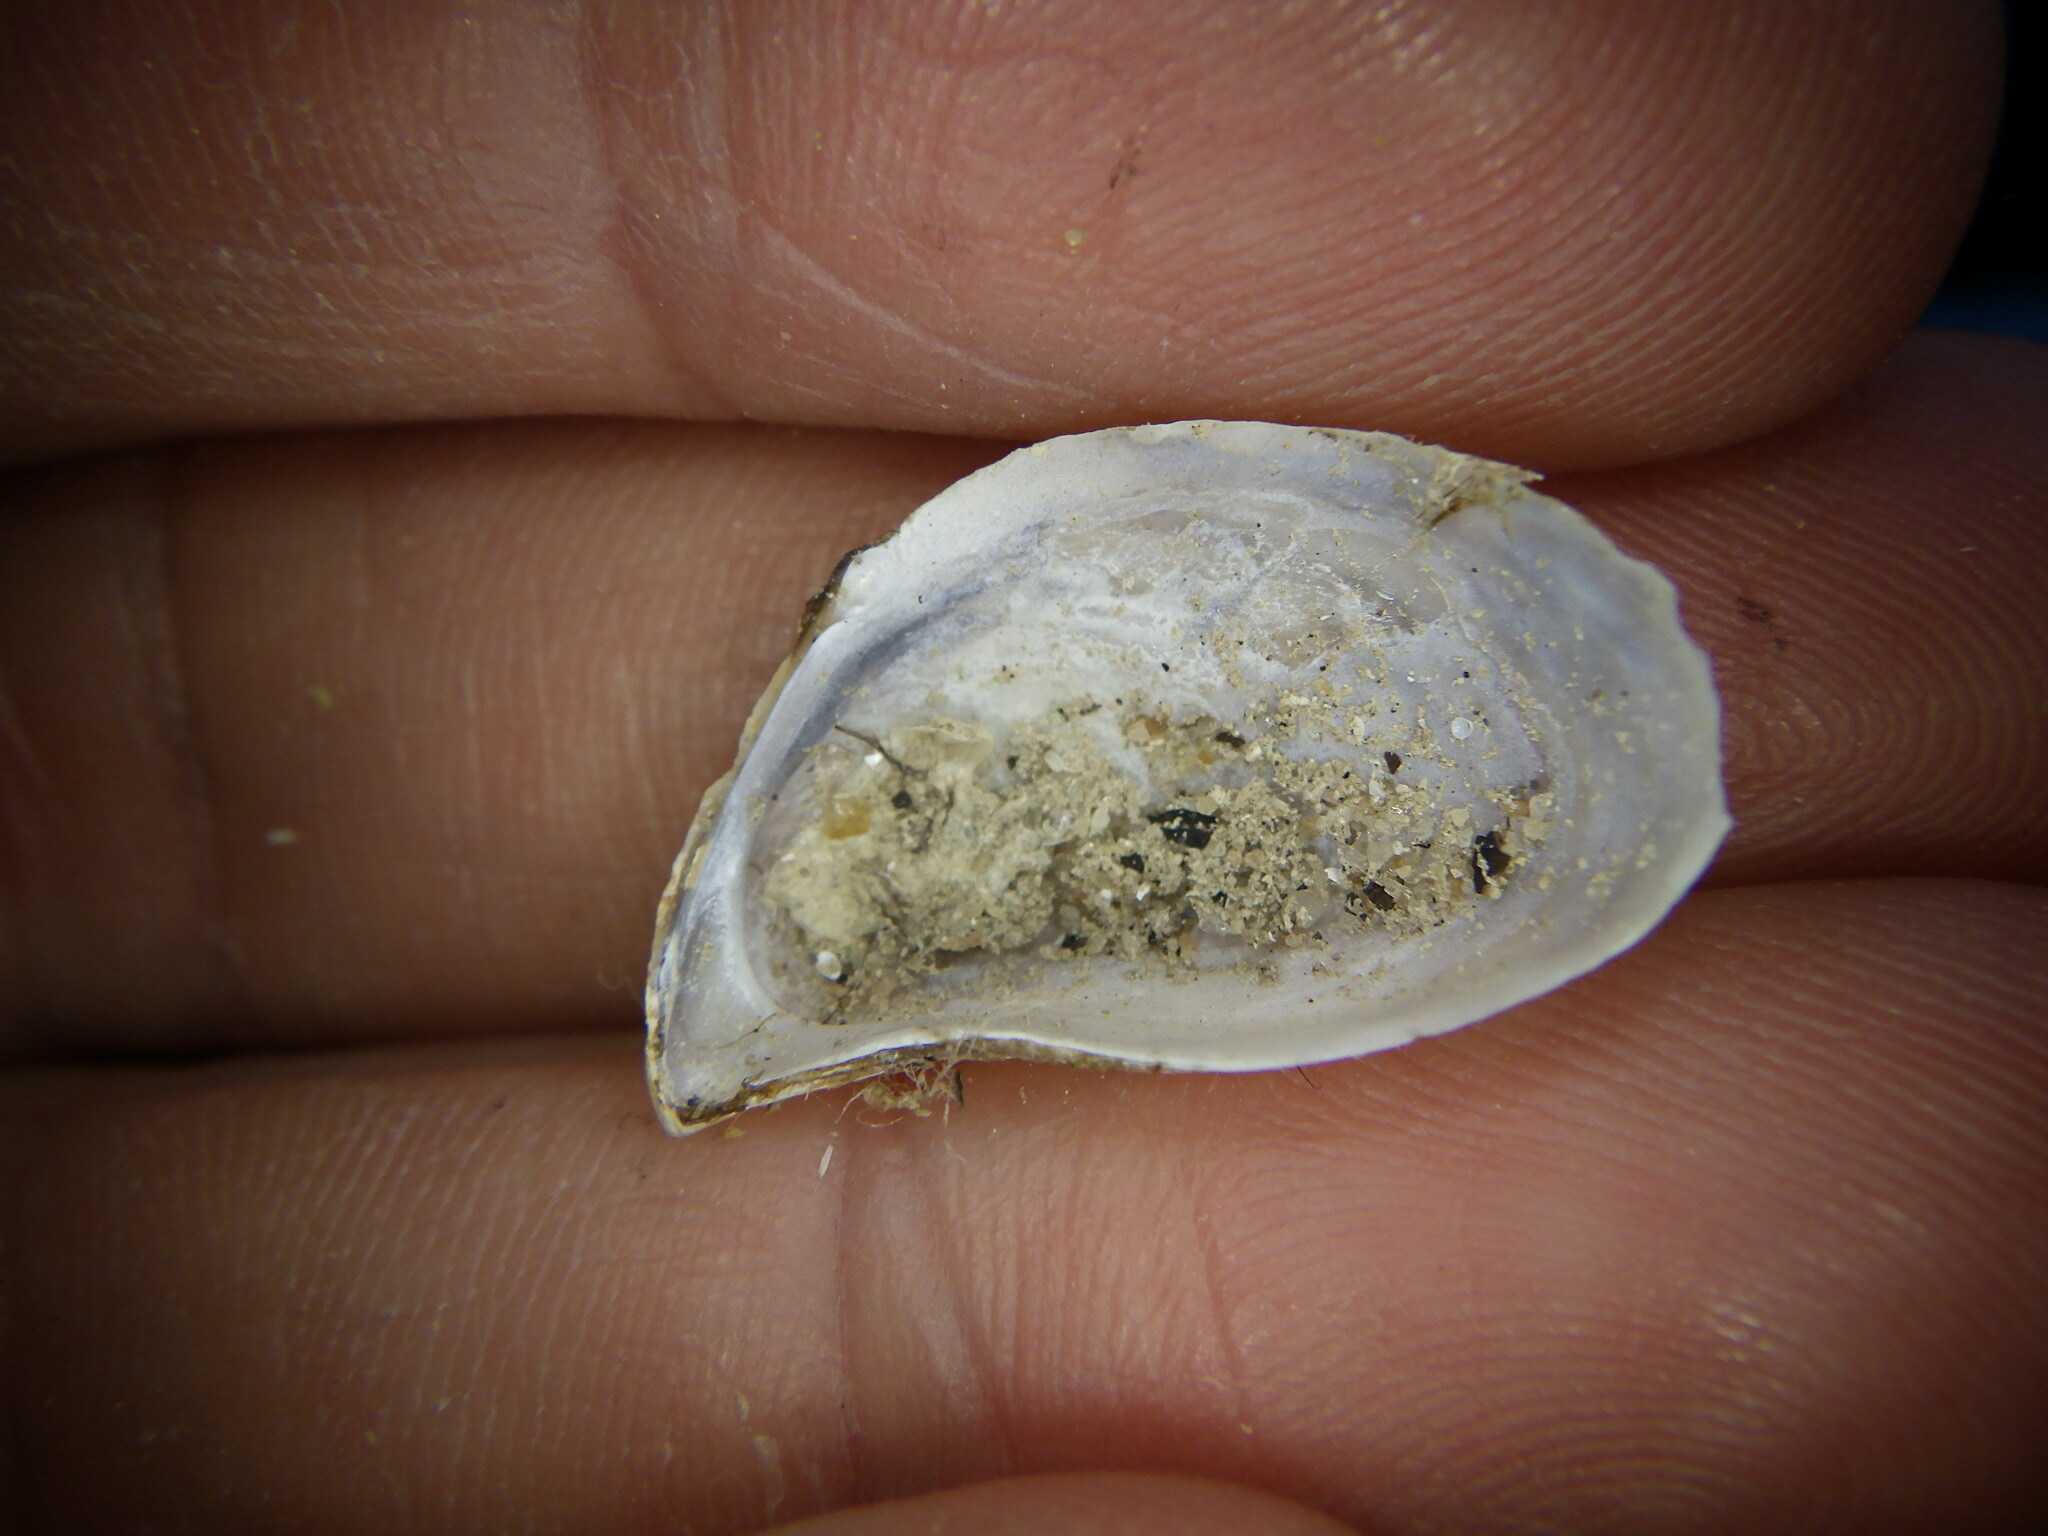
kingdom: Animalia
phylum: Mollusca
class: Bivalvia
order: Myida
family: Dreissenidae
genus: Dreissena
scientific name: Dreissena bugensis
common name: Quagga mussel
